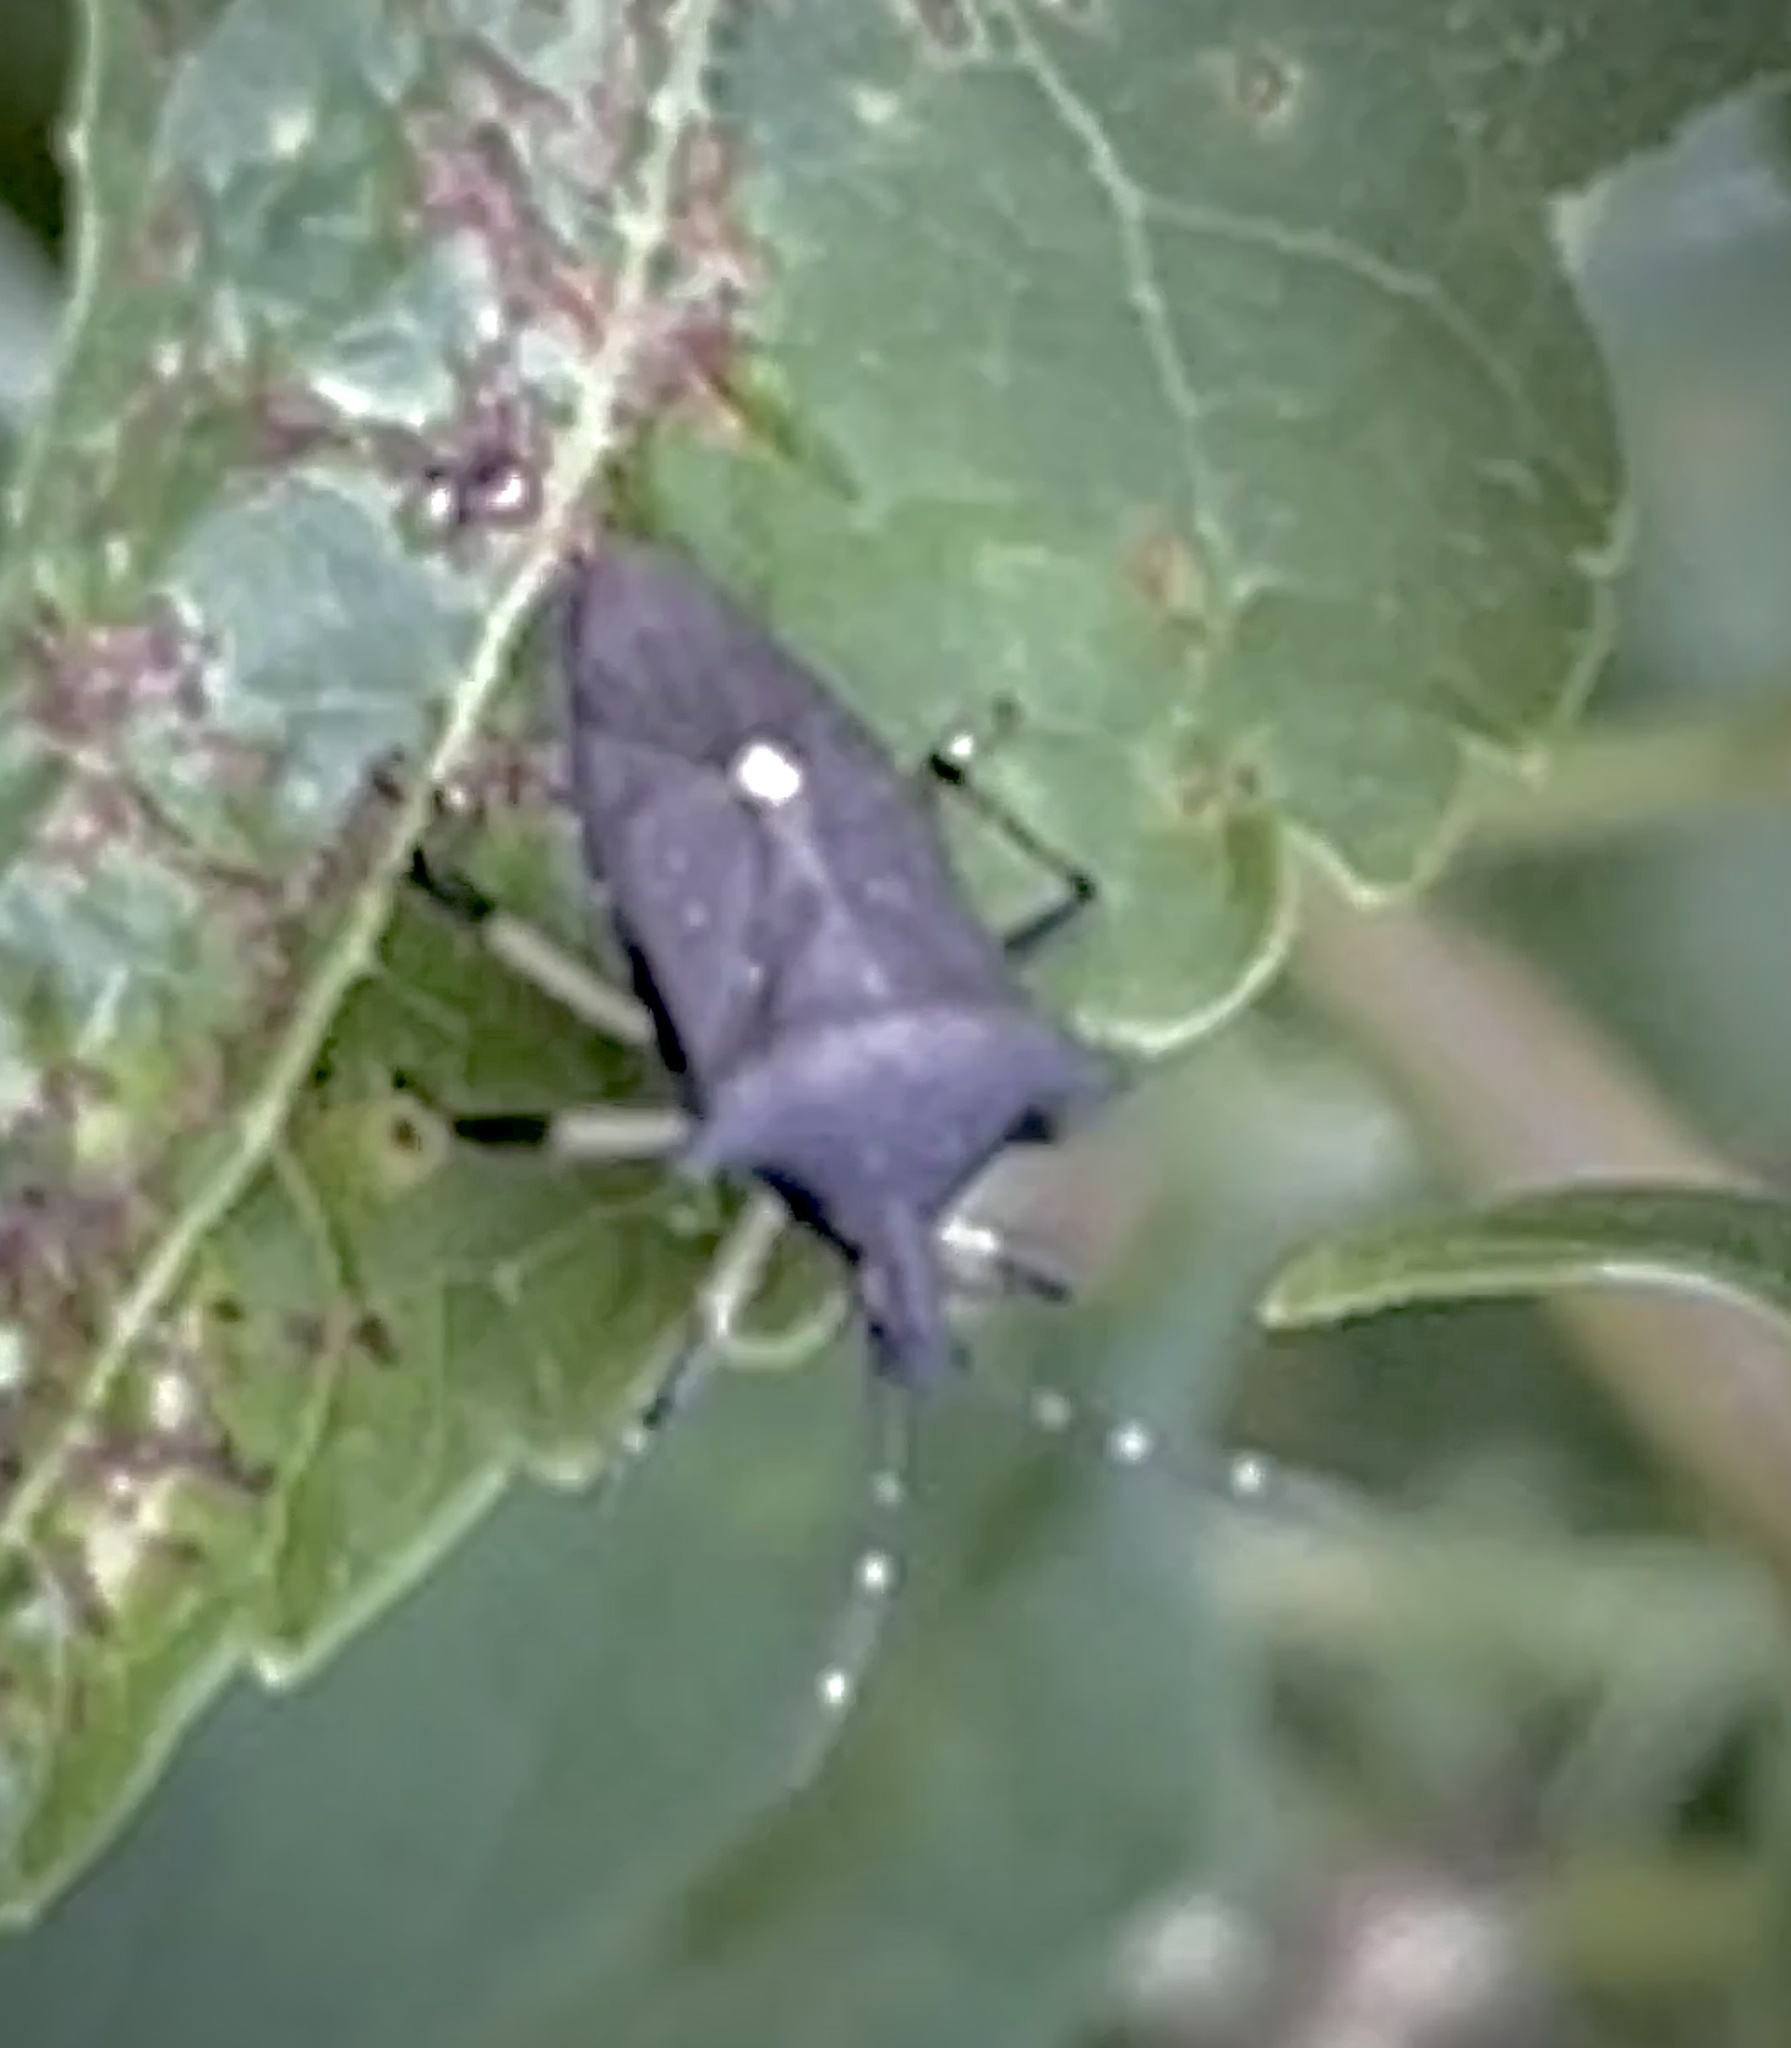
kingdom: Animalia
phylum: Arthropoda
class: Insecta
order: Hemiptera
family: Pentatomidae
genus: Proxys
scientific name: Proxys punctulatus
